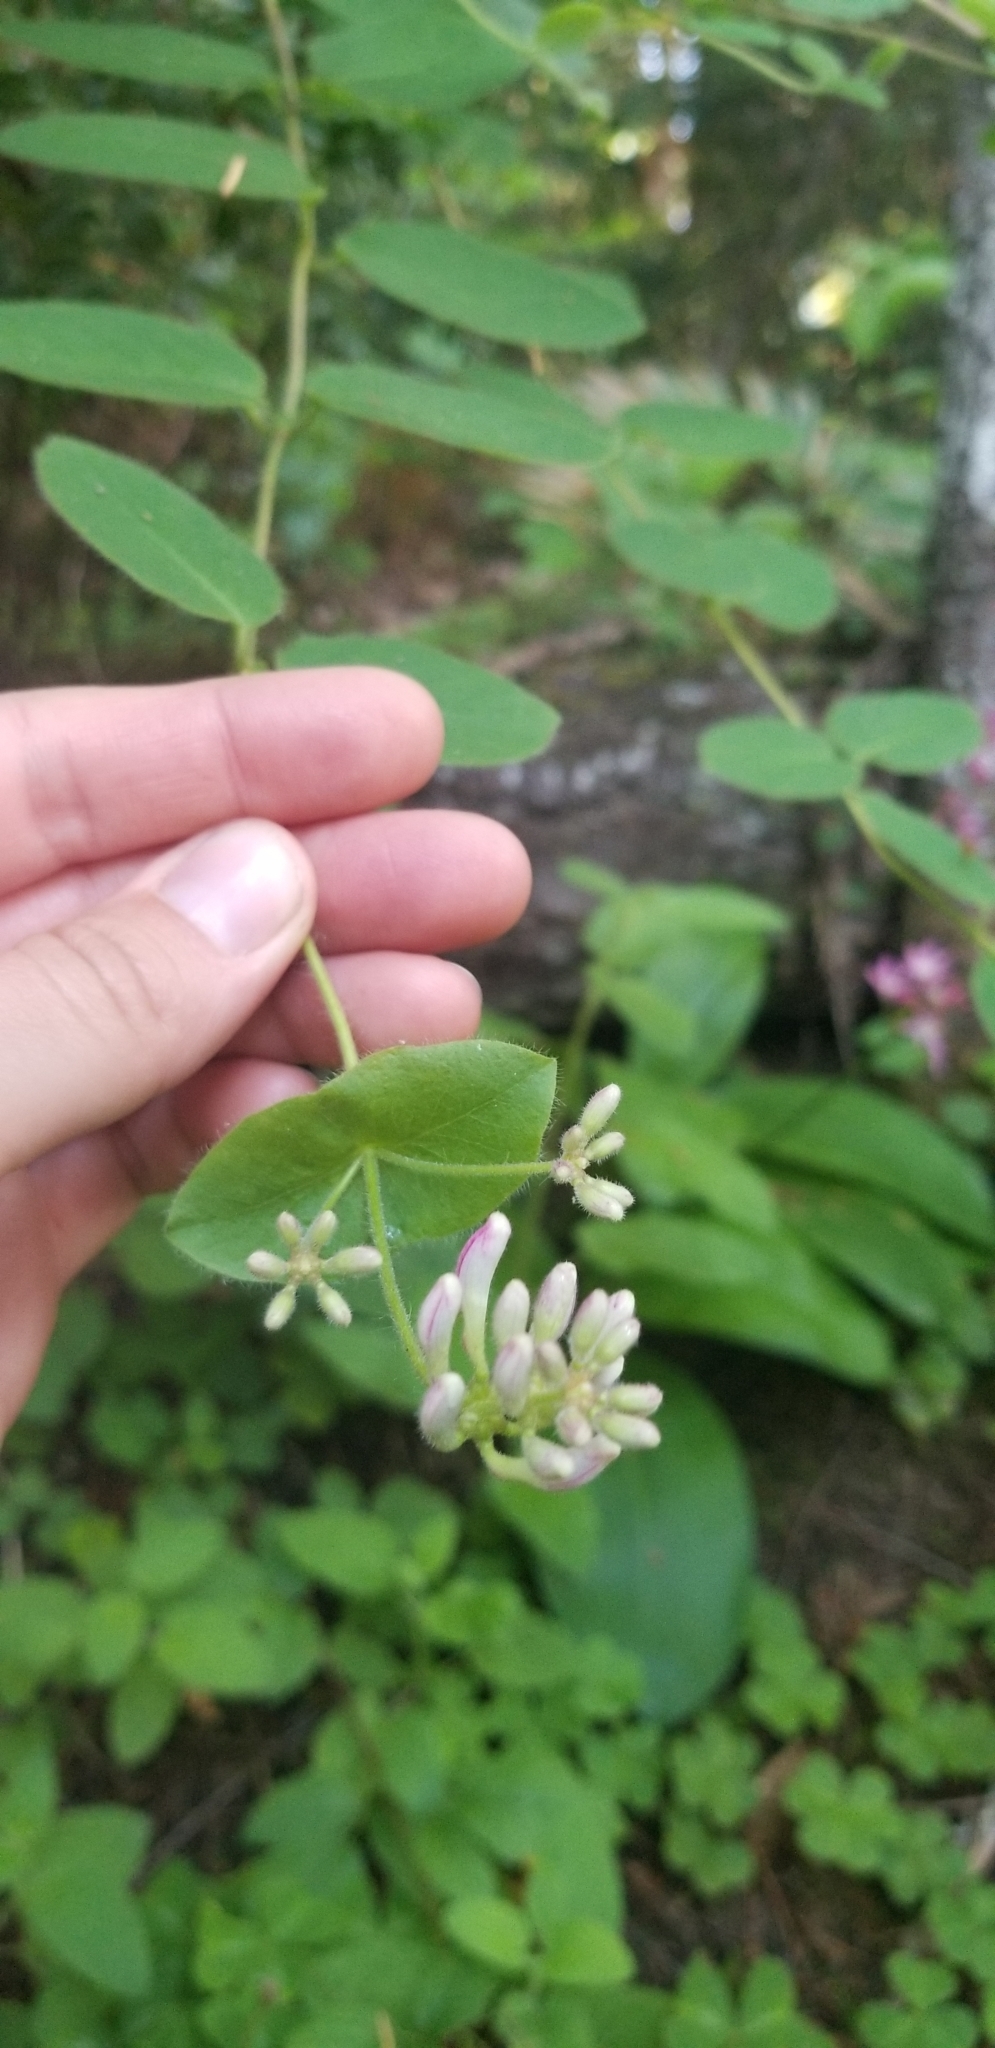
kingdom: Plantae
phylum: Tracheophyta
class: Magnoliopsida
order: Dipsacales
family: Caprifoliaceae
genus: Lonicera
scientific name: Lonicera hispidula
